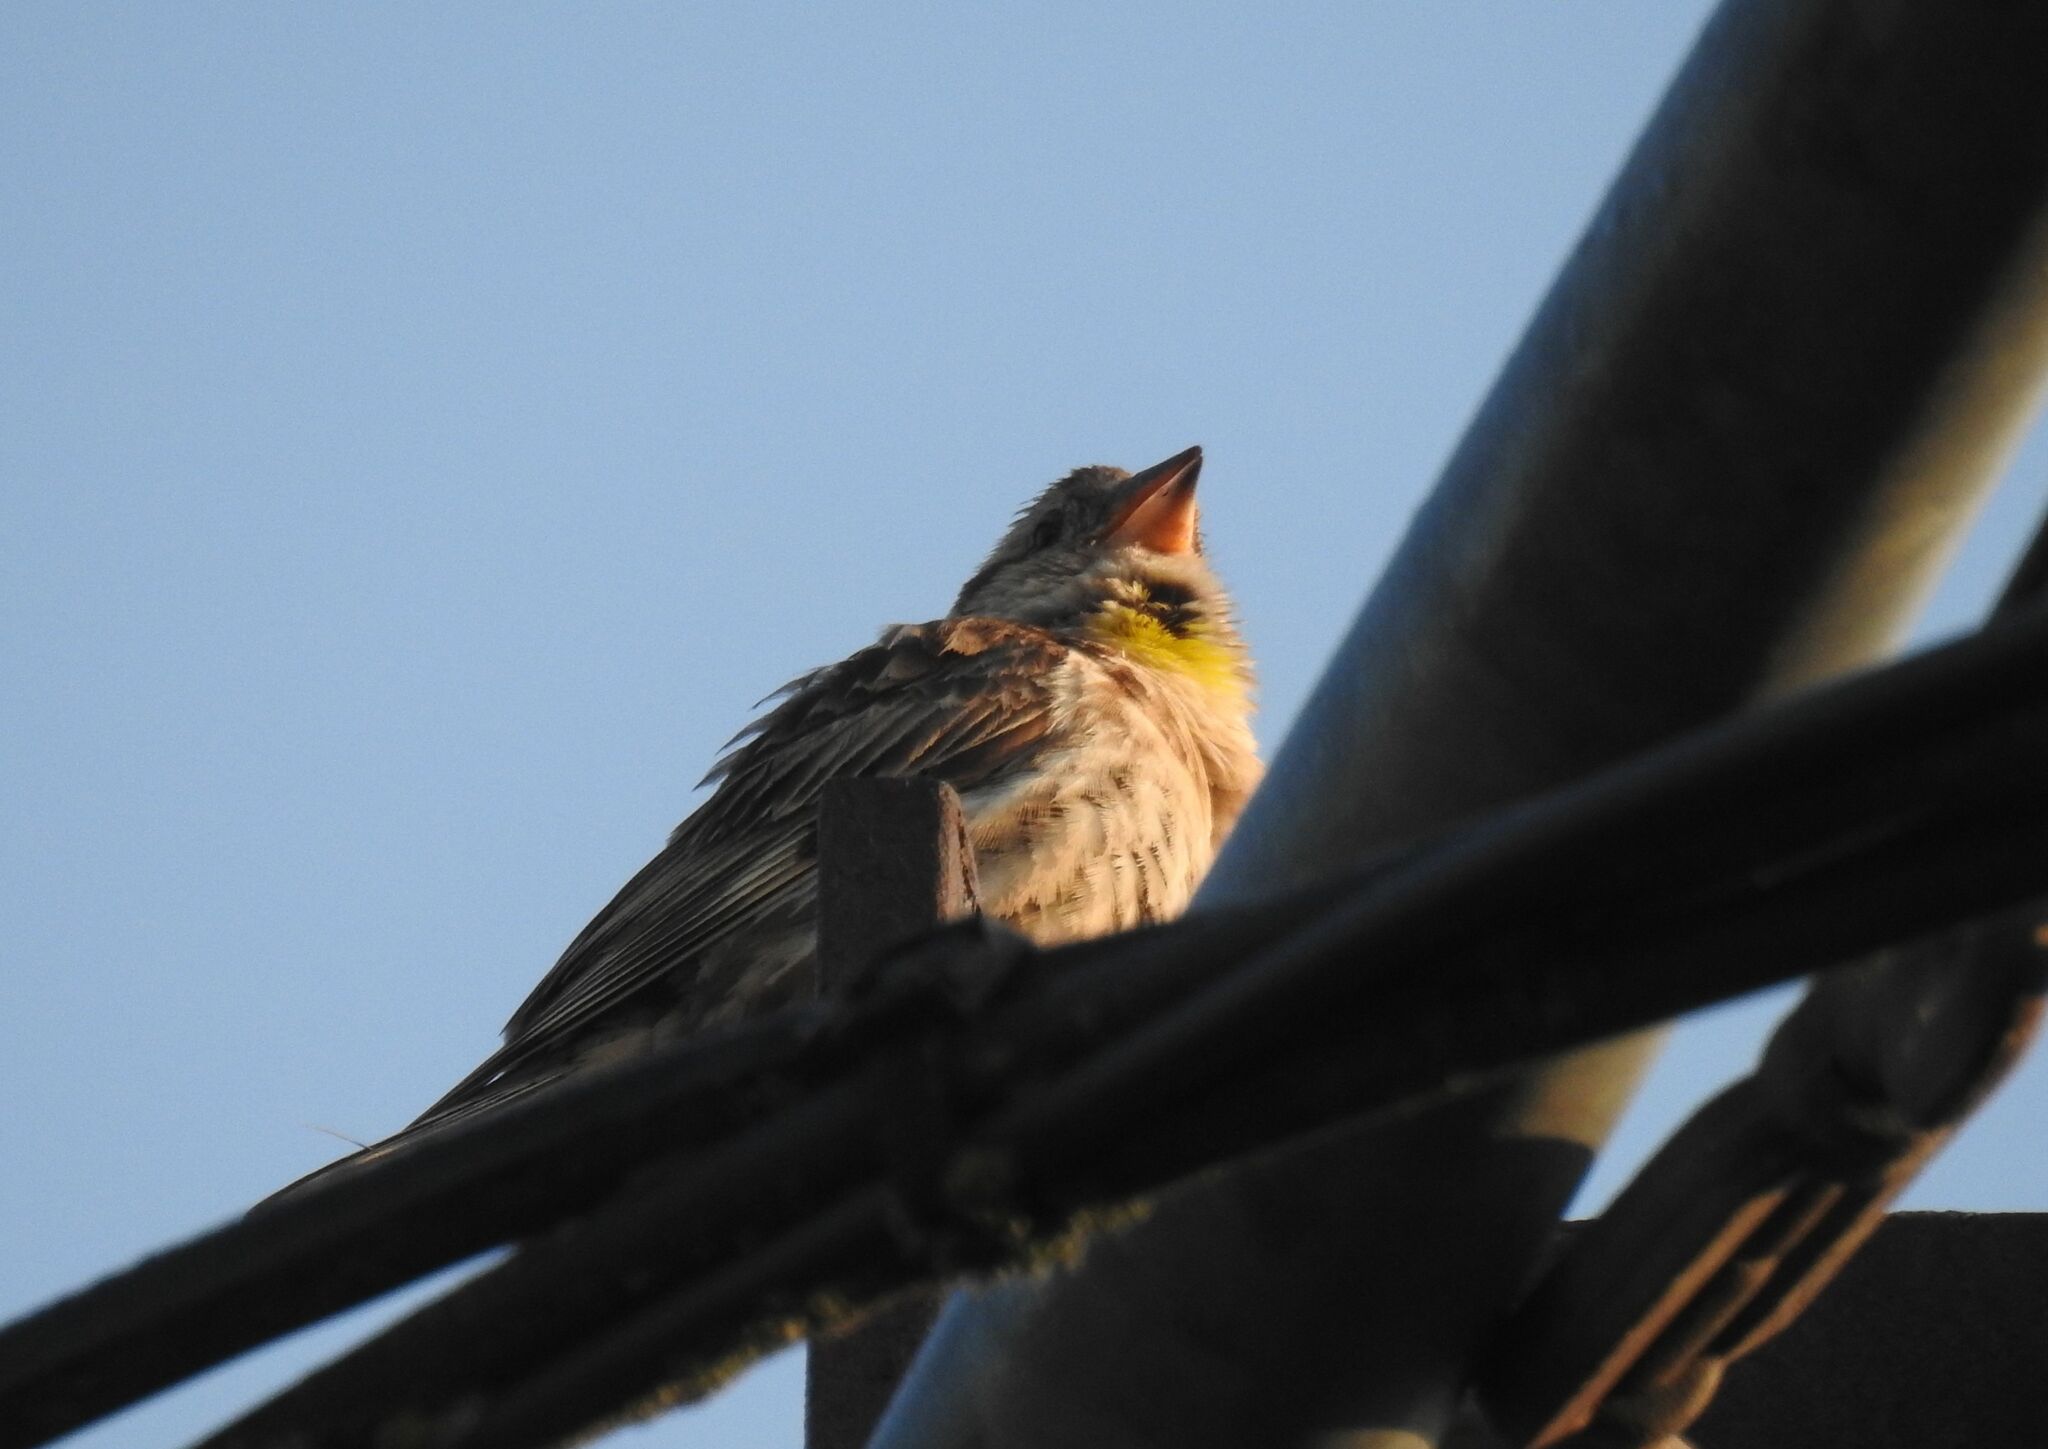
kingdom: Animalia
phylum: Chordata
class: Aves
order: Passeriformes
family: Passeridae
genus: Petronia
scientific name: Petronia petronia
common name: Rock sparrow
